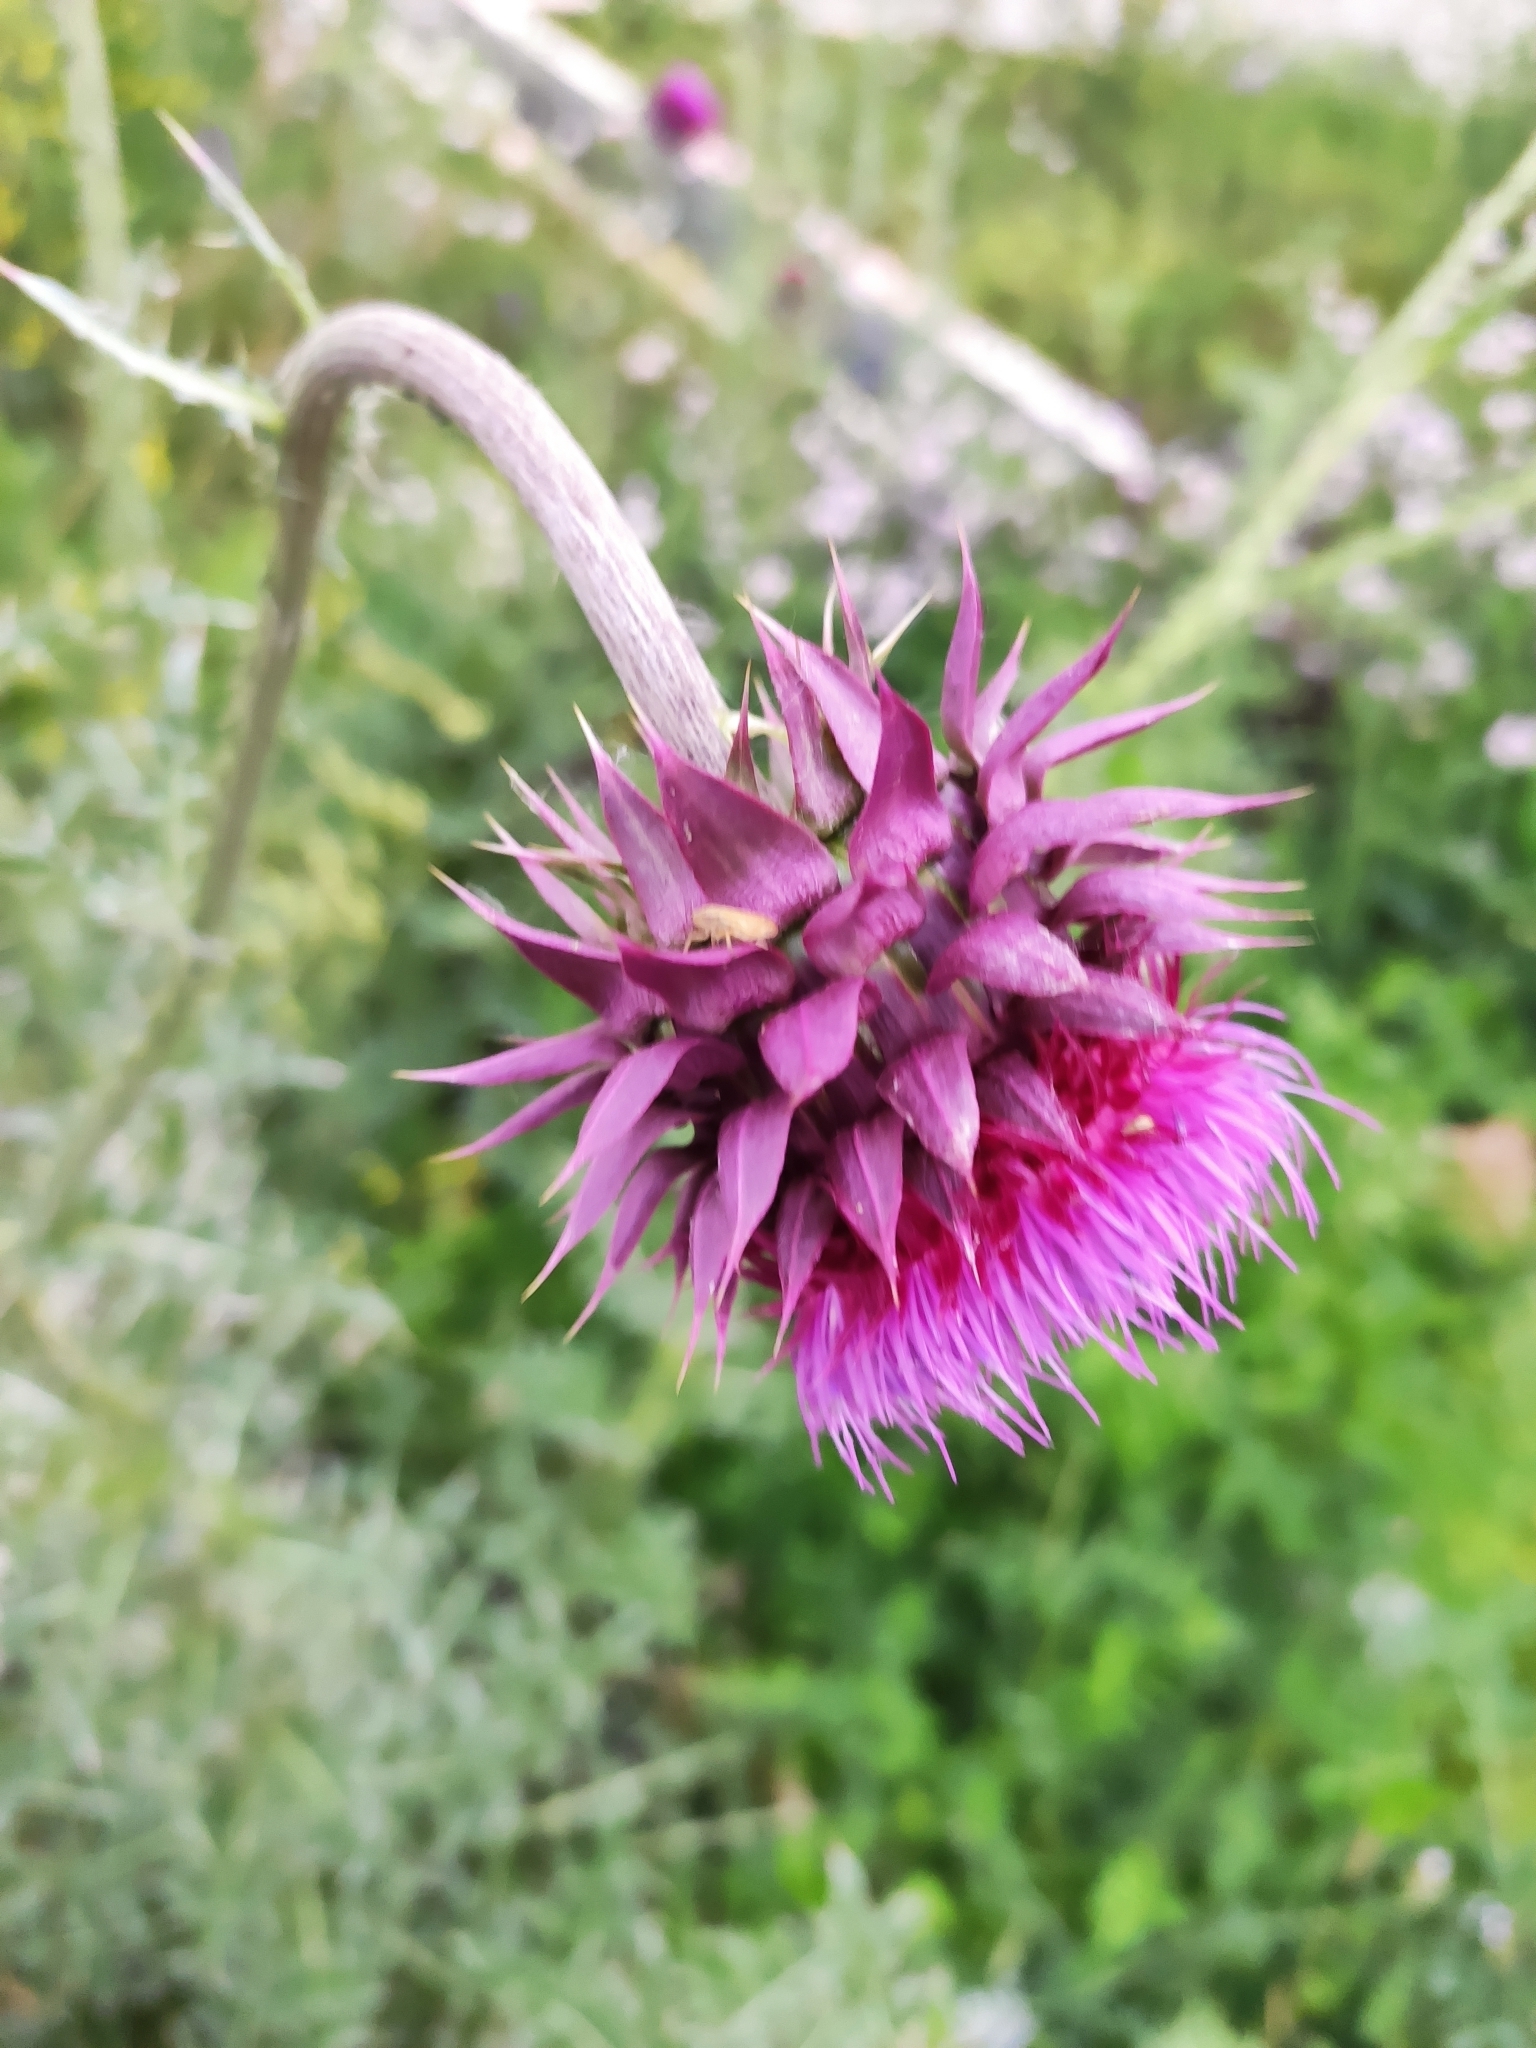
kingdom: Plantae
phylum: Tracheophyta
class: Magnoliopsida
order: Asterales
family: Asteraceae
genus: Carduus
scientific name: Carduus nutans
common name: Musk thistle
